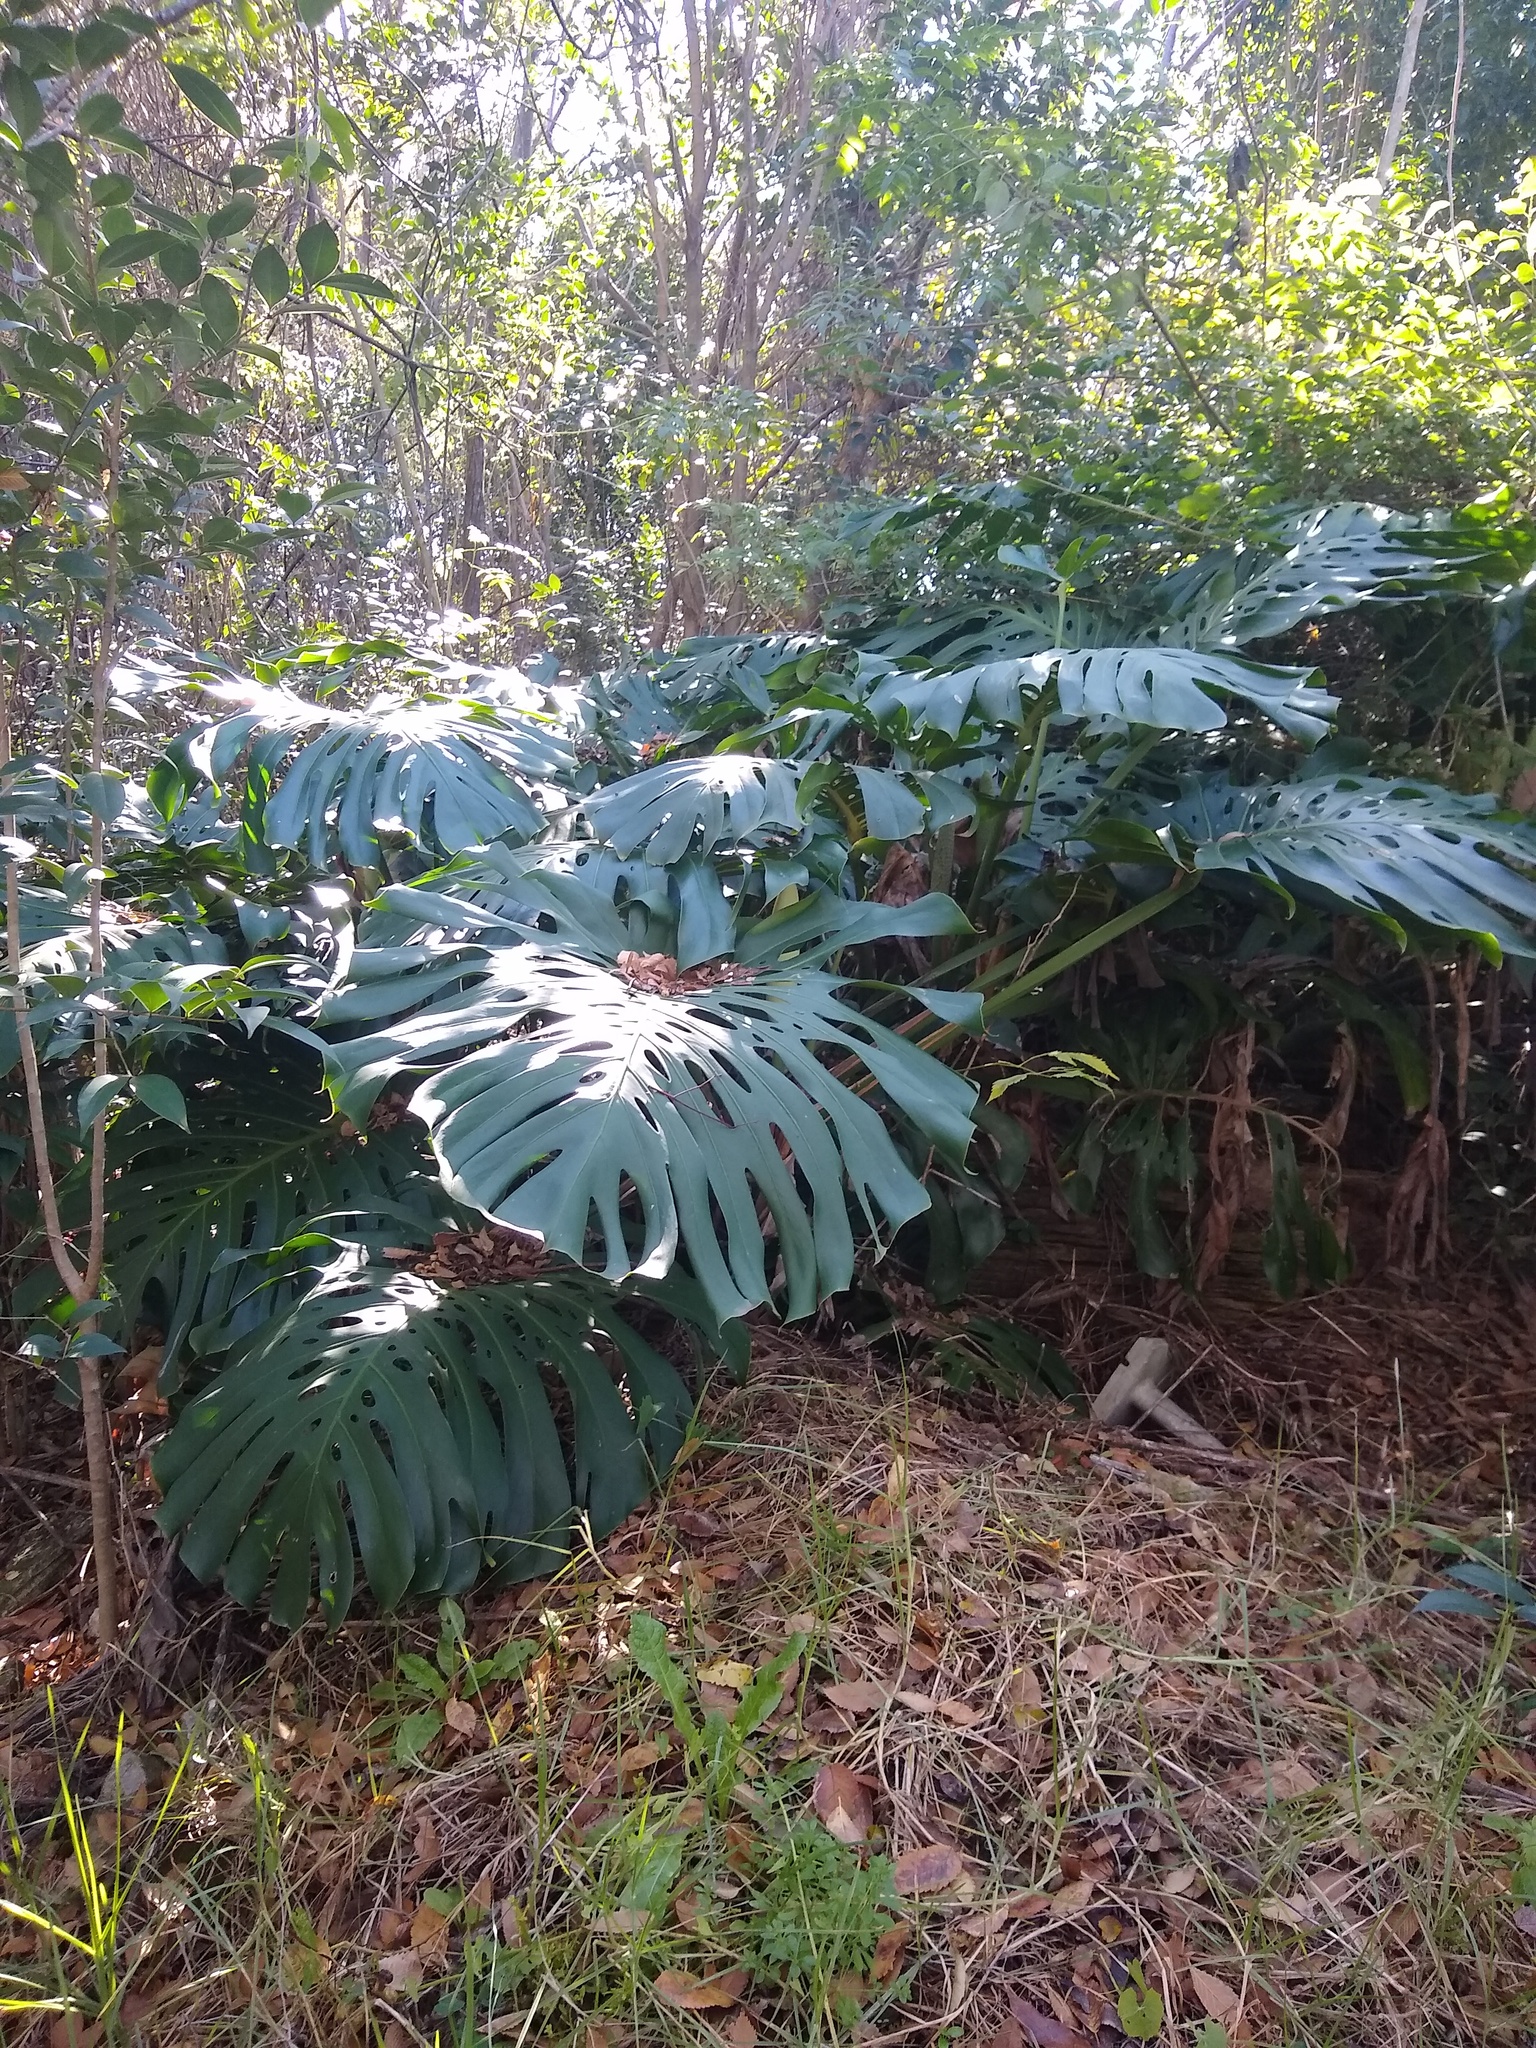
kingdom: Plantae
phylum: Tracheophyta
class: Liliopsida
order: Alismatales
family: Araceae
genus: Monstera
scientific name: Monstera deliciosa
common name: Cut-leaf-philodendron
